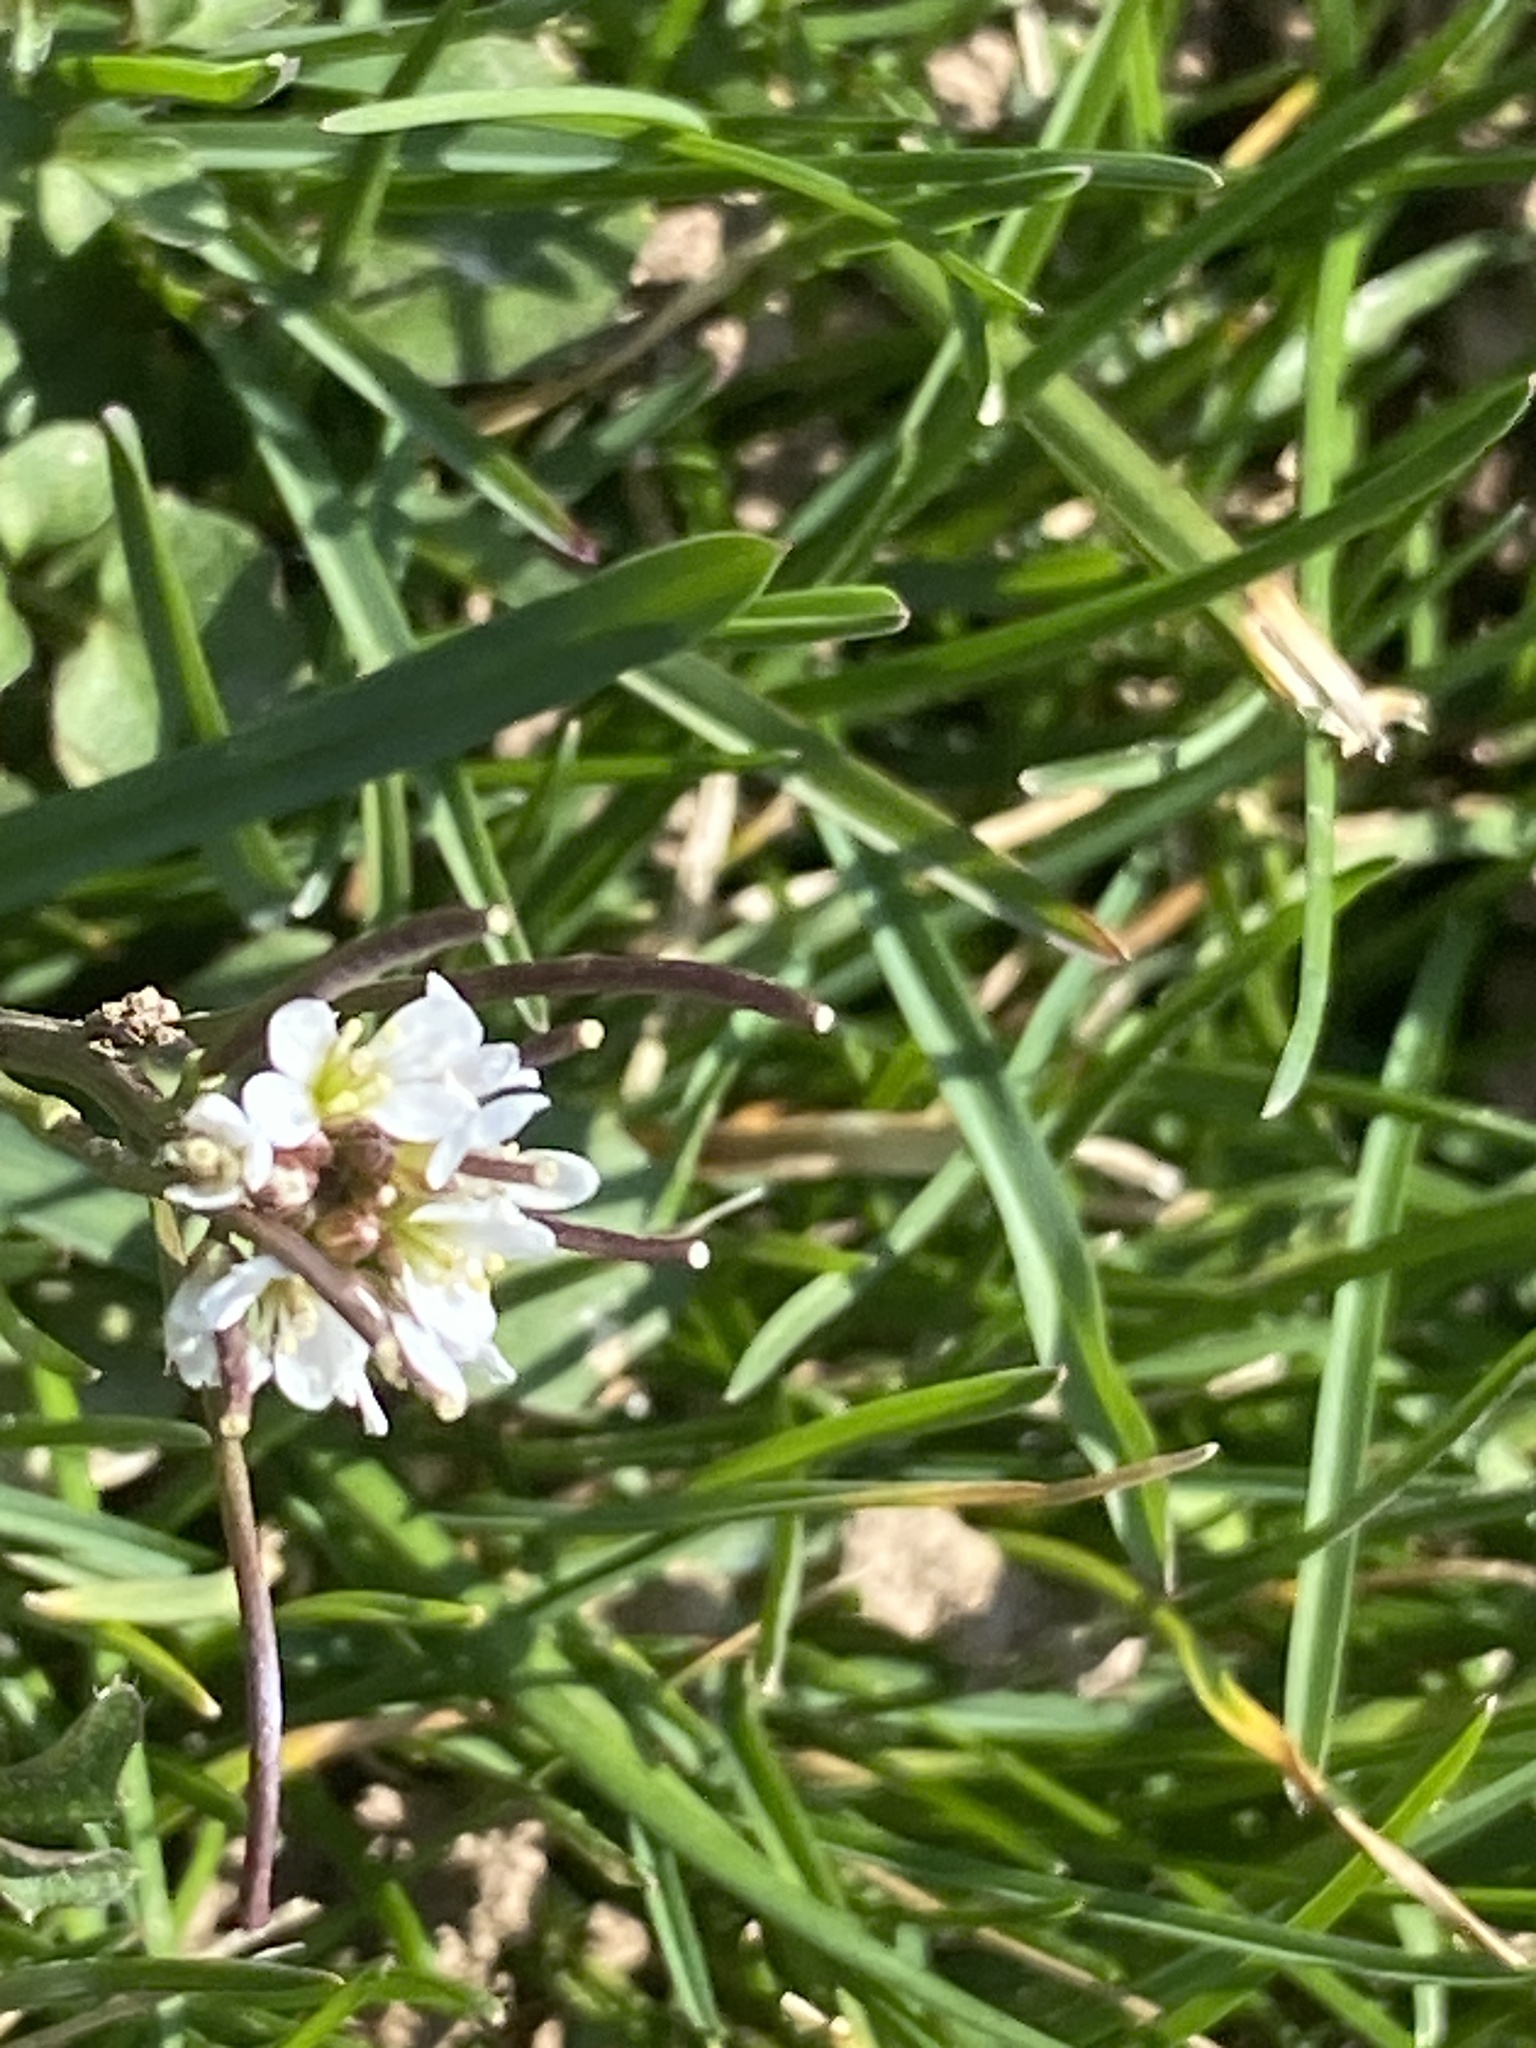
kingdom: Plantae
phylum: Tracheophyta
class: Magnoliopsida
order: Brassicales
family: Brassicaceae
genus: Cardamine
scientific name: Cardamine hirsuta
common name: Hairy bittercress
